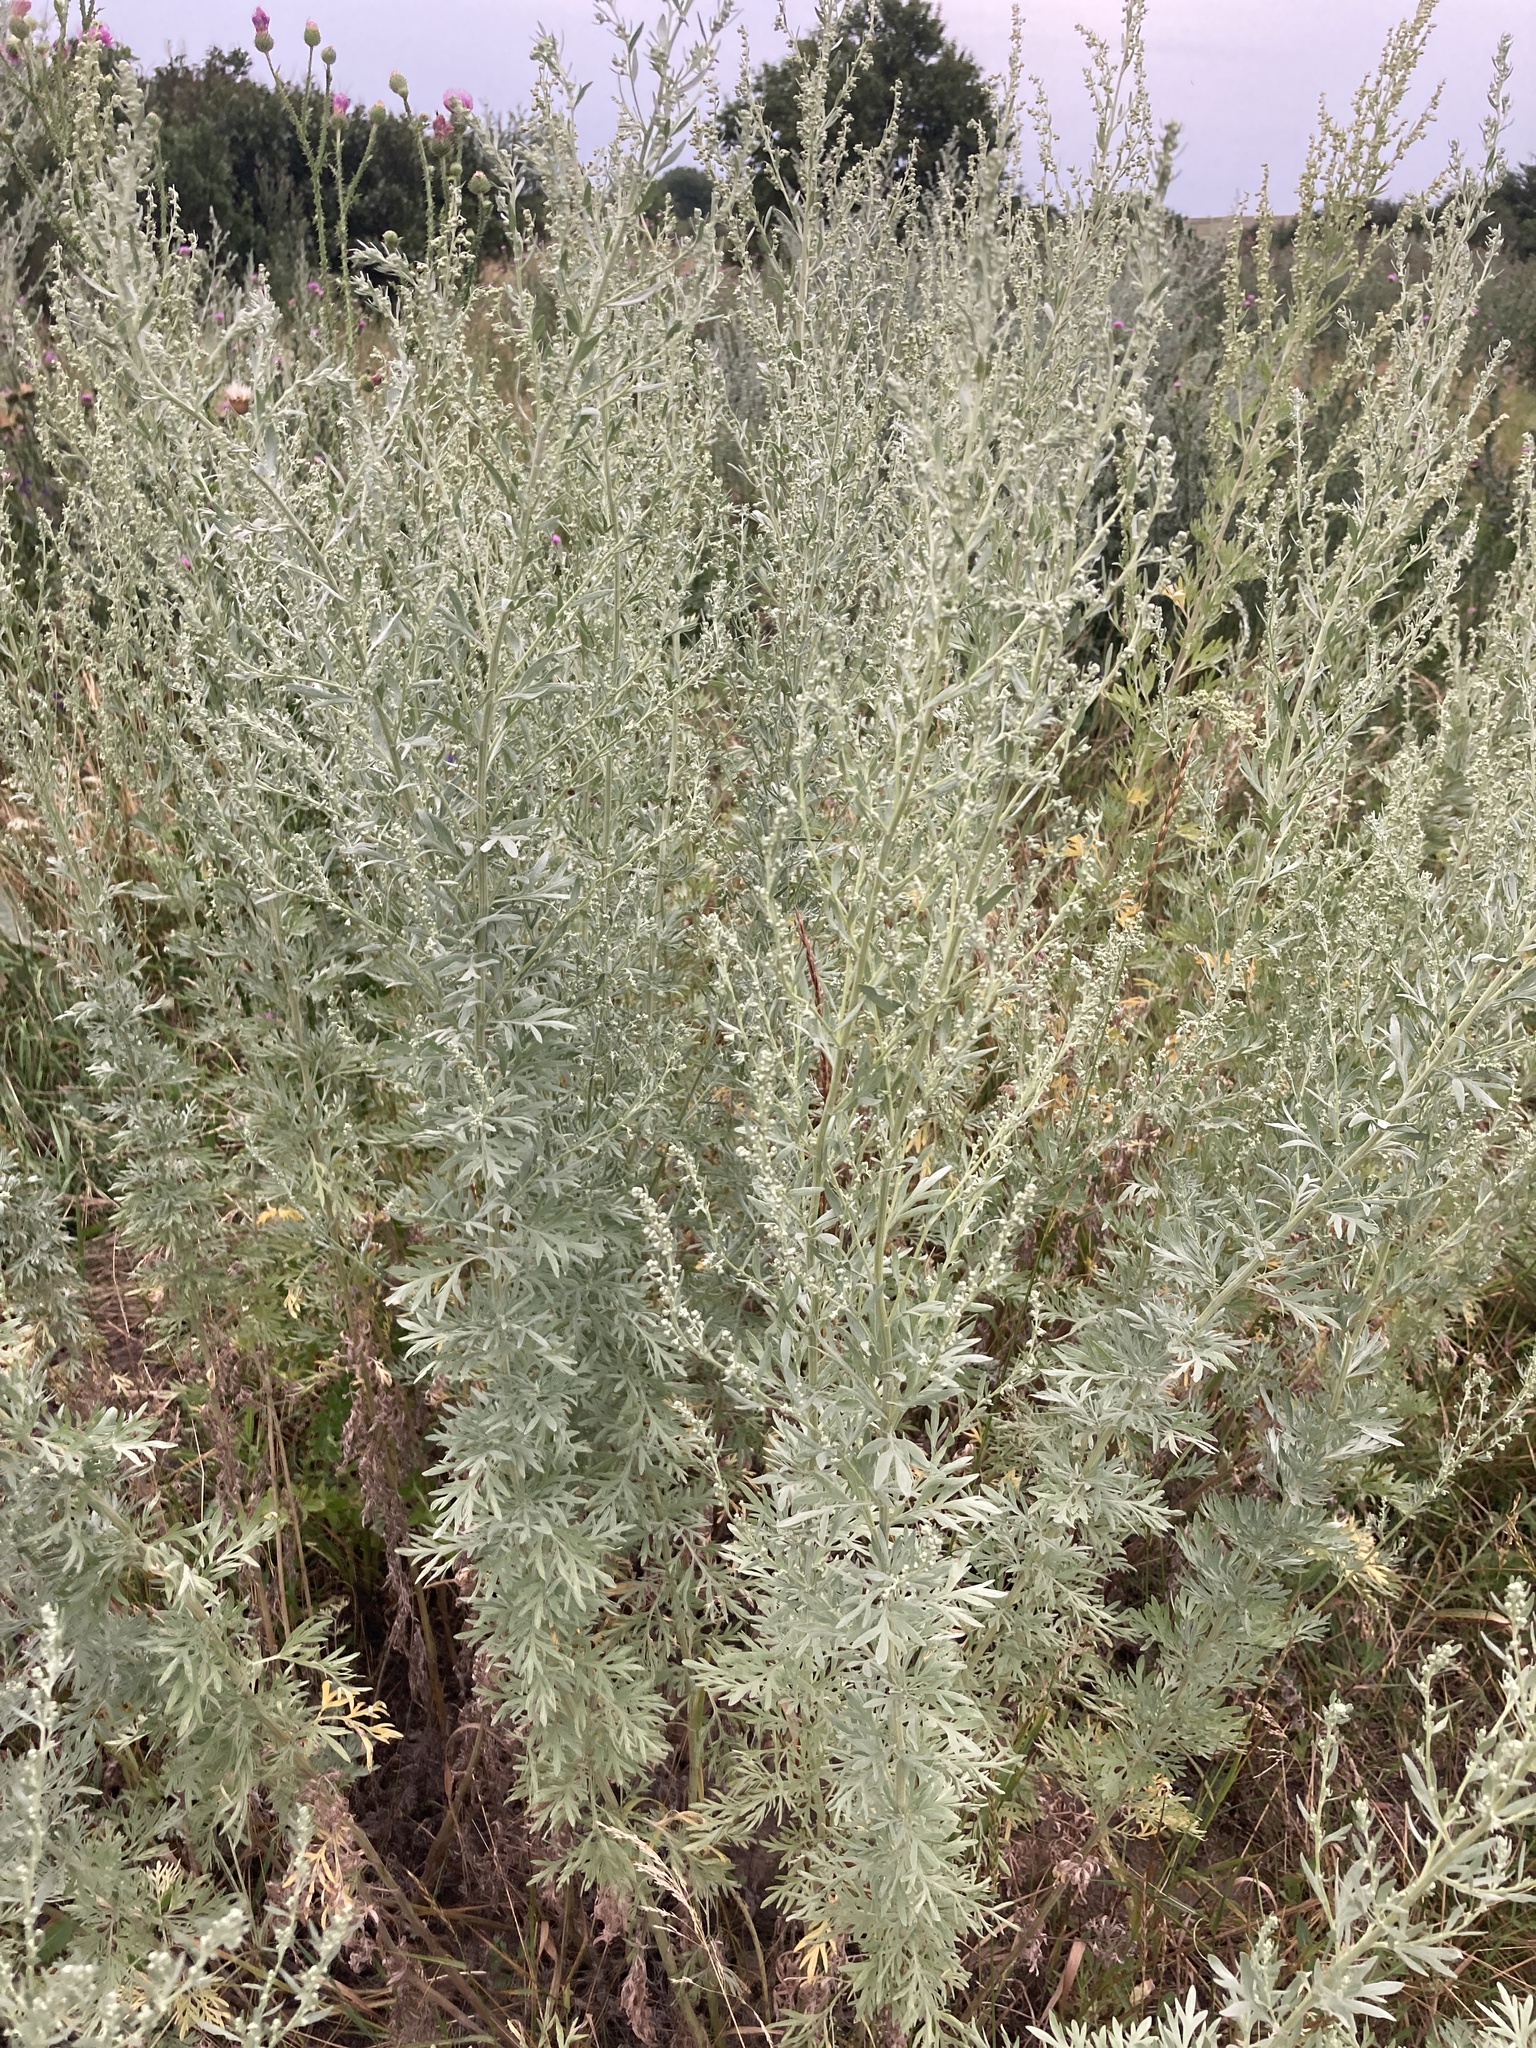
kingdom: Plantae
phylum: Tracheophyta
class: Magnoliopsida
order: Asterales
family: Asteraceae
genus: Artemisia
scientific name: Artemisia absinthium
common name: Wormwood
